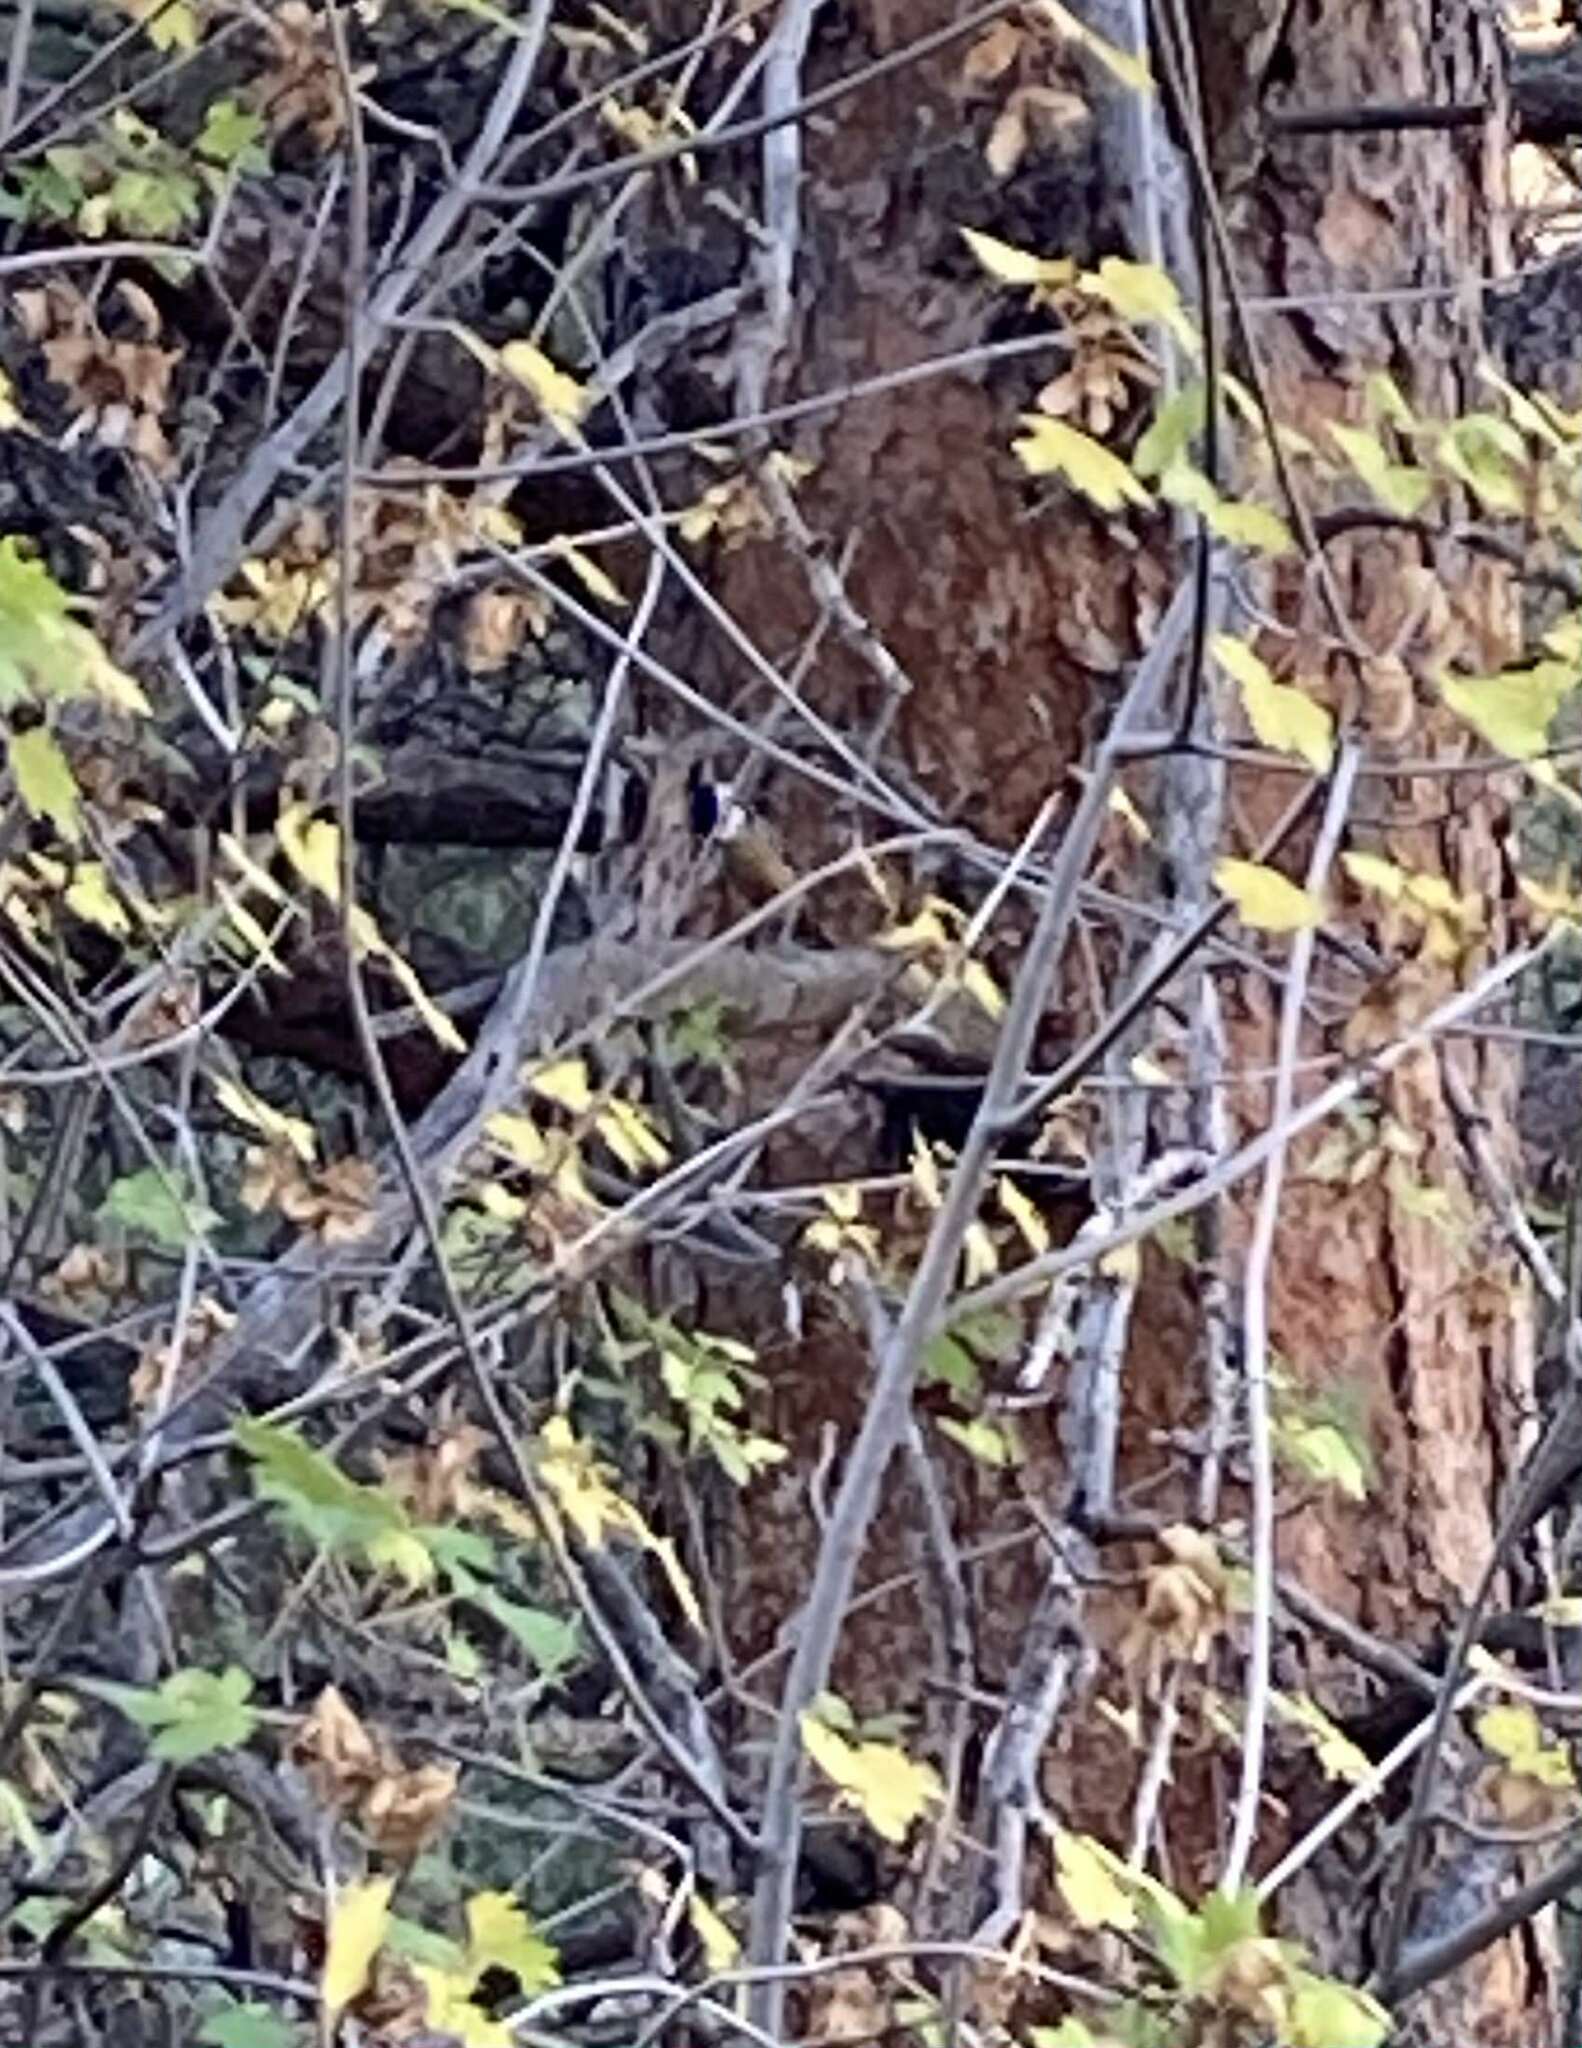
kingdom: Animalia
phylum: Chordata
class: Aves
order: Passeriformes
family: Certhiidae
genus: Certhia
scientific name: Certhia americana
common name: Brown creeper
